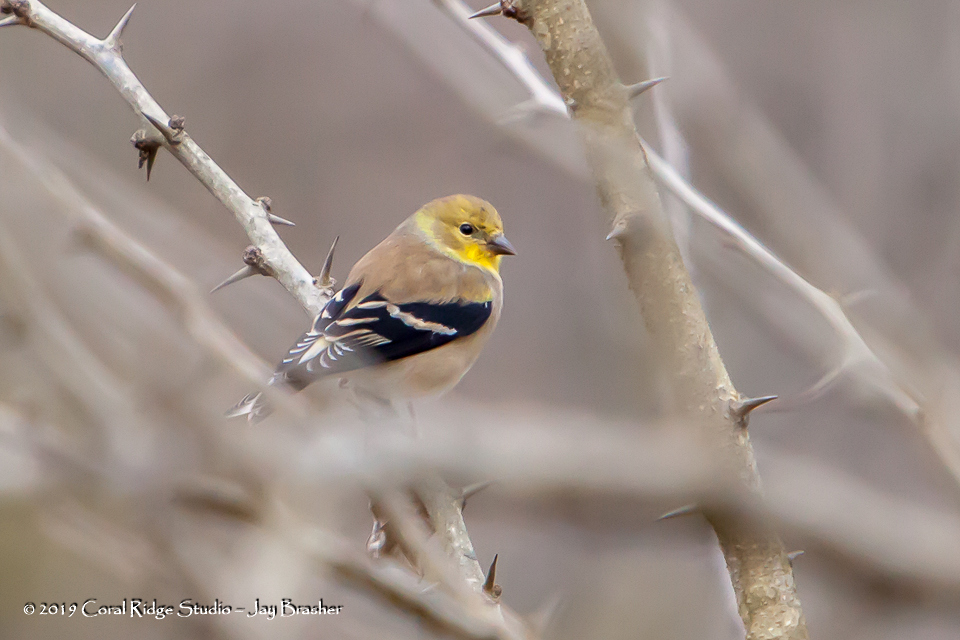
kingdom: Animalia
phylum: Chordata
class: Aves
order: Passeriformes
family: Fringillidae
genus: Spinus
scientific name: Spinus tristis
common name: American goldfinch
